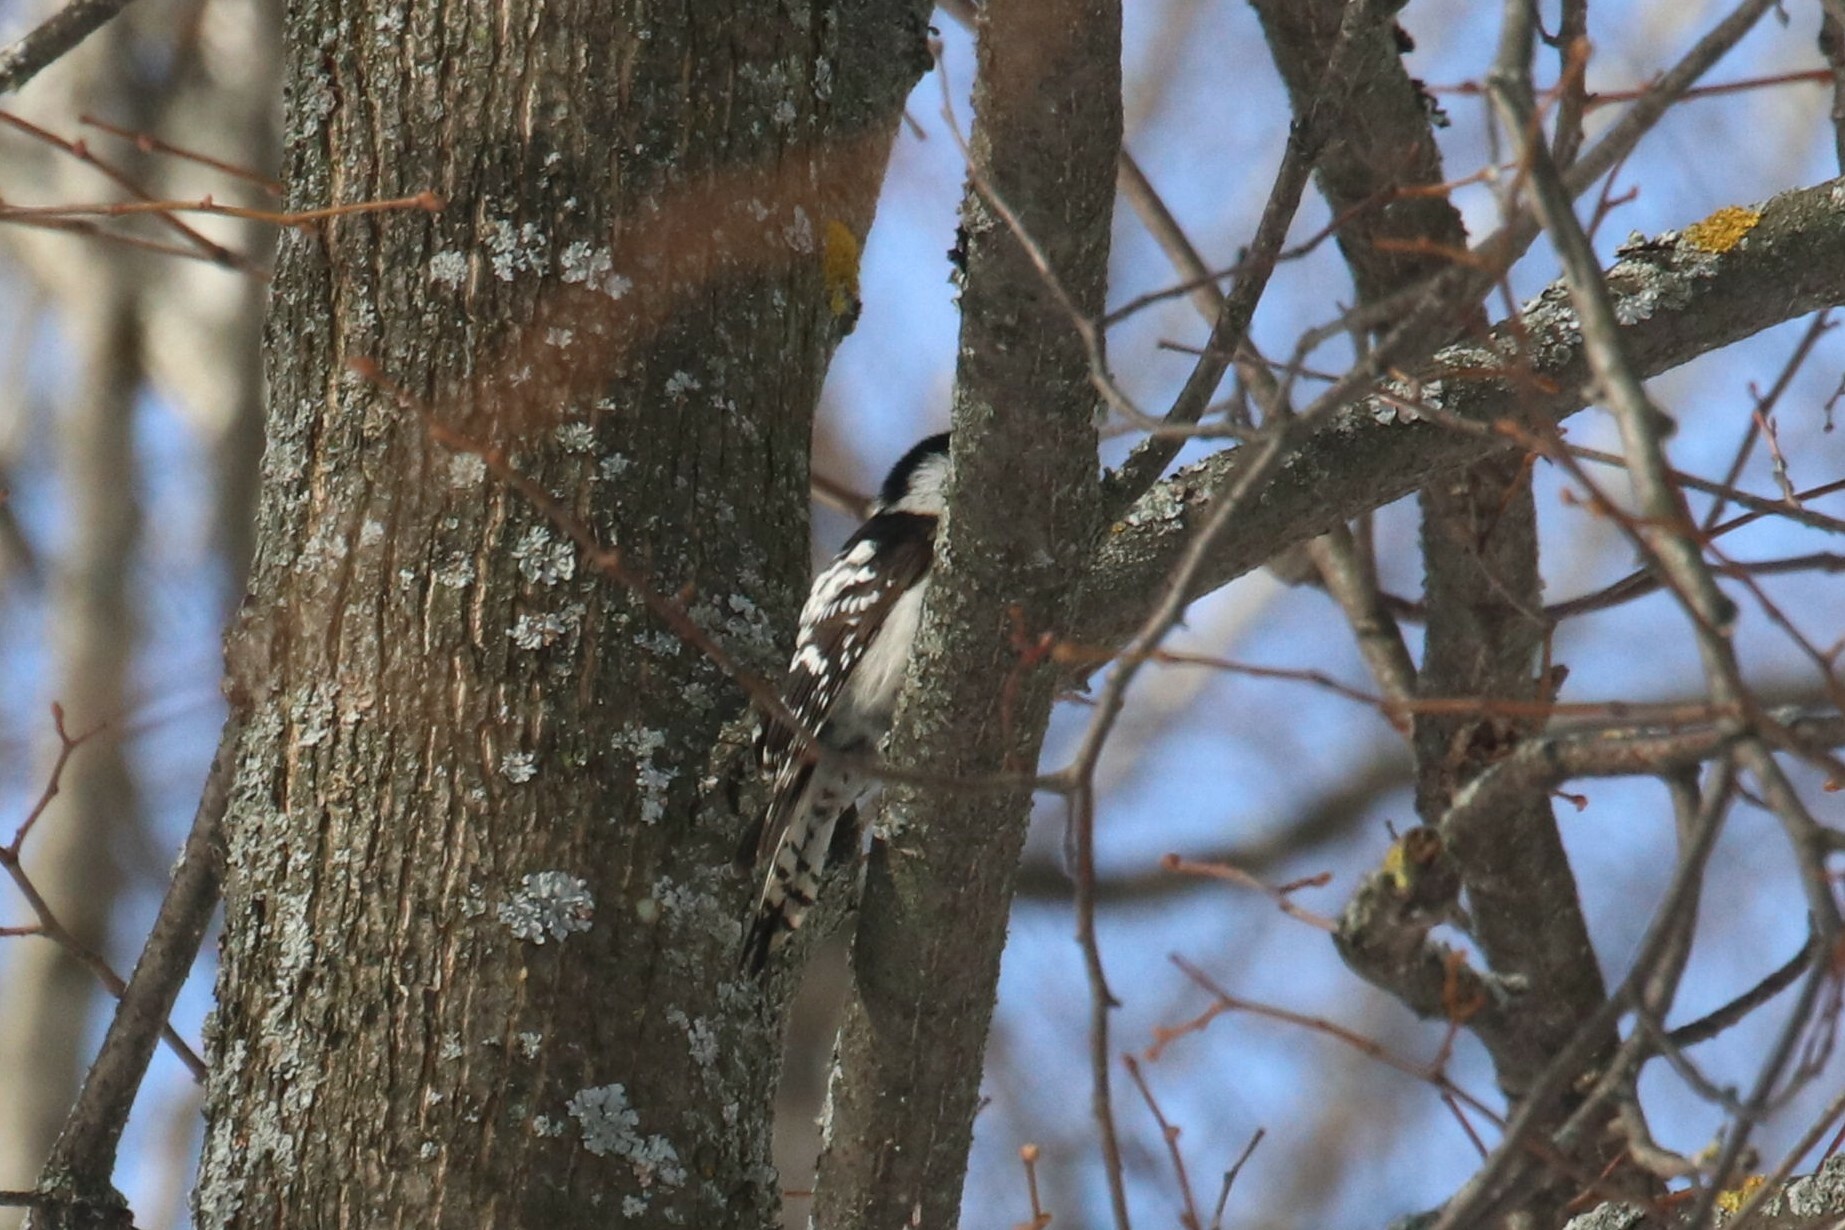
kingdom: Animalia
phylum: Chordata
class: Aves
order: Piciformes
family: Picidae
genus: Dryobates
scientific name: Dryobates minor
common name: Lesser spotted woodpecker
